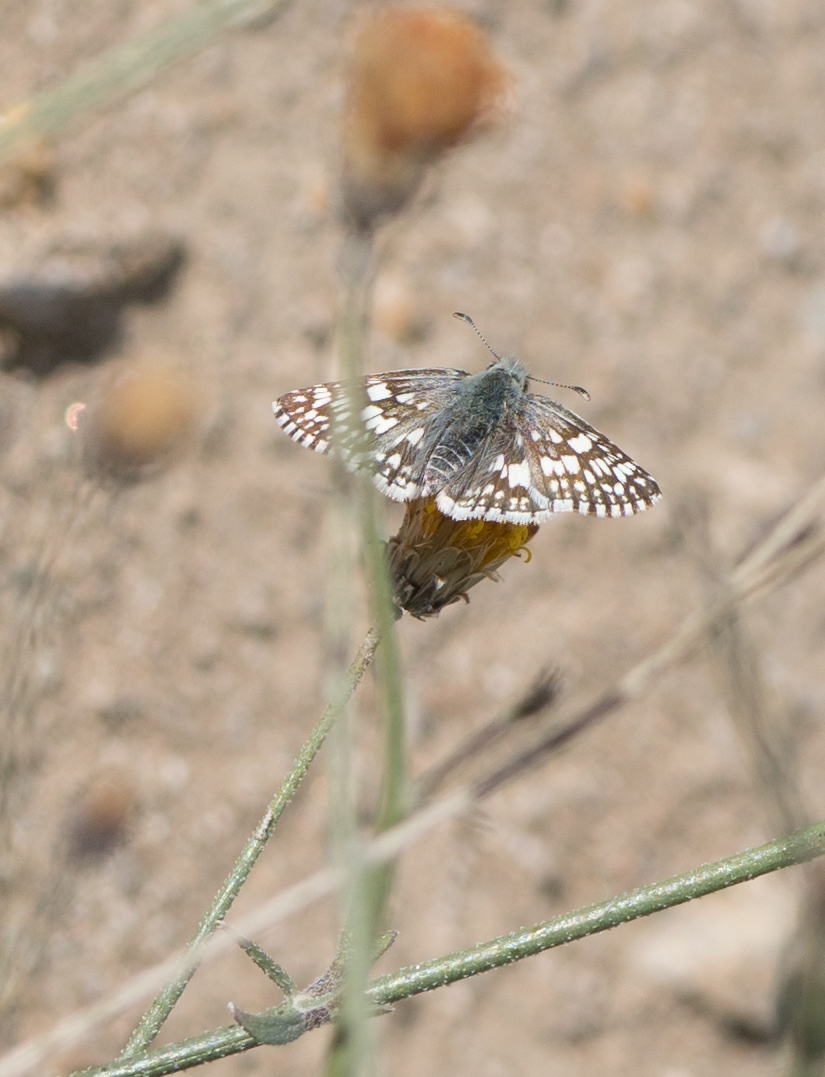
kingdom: Animalia
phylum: Arthropoda
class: Insecta
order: Lepidoptera
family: Hesperiidae
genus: Burnsius
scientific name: Burnsius albezens
